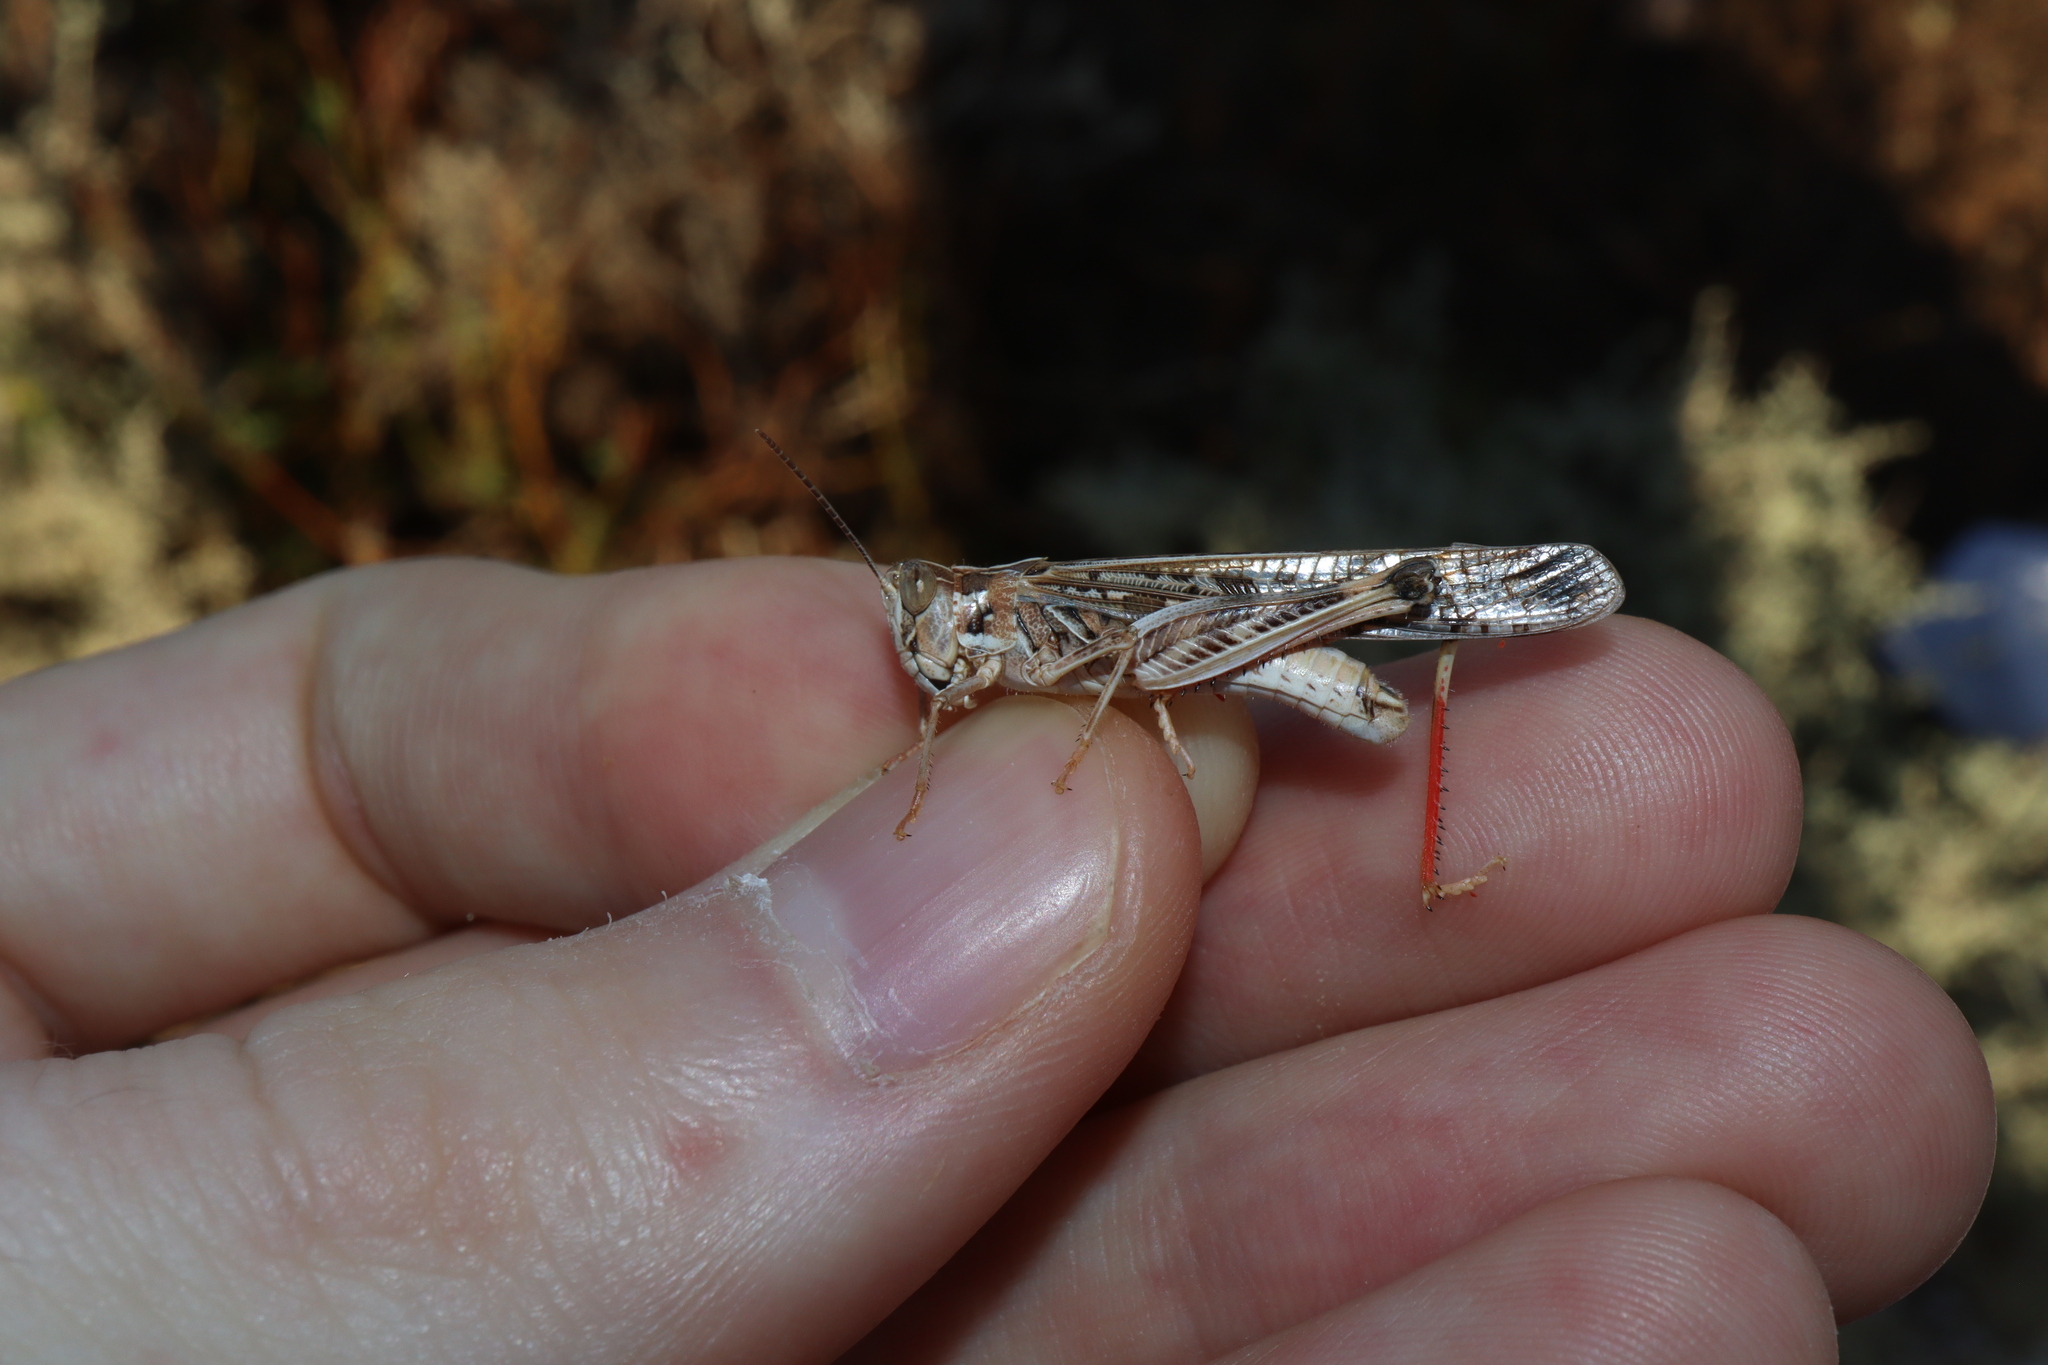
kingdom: Animalia
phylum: Arthropoda
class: Insecta
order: Orthoptera
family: Acrididae
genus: Chortoicetes
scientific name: Chortoicetes terminifera
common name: Australian plague locust
